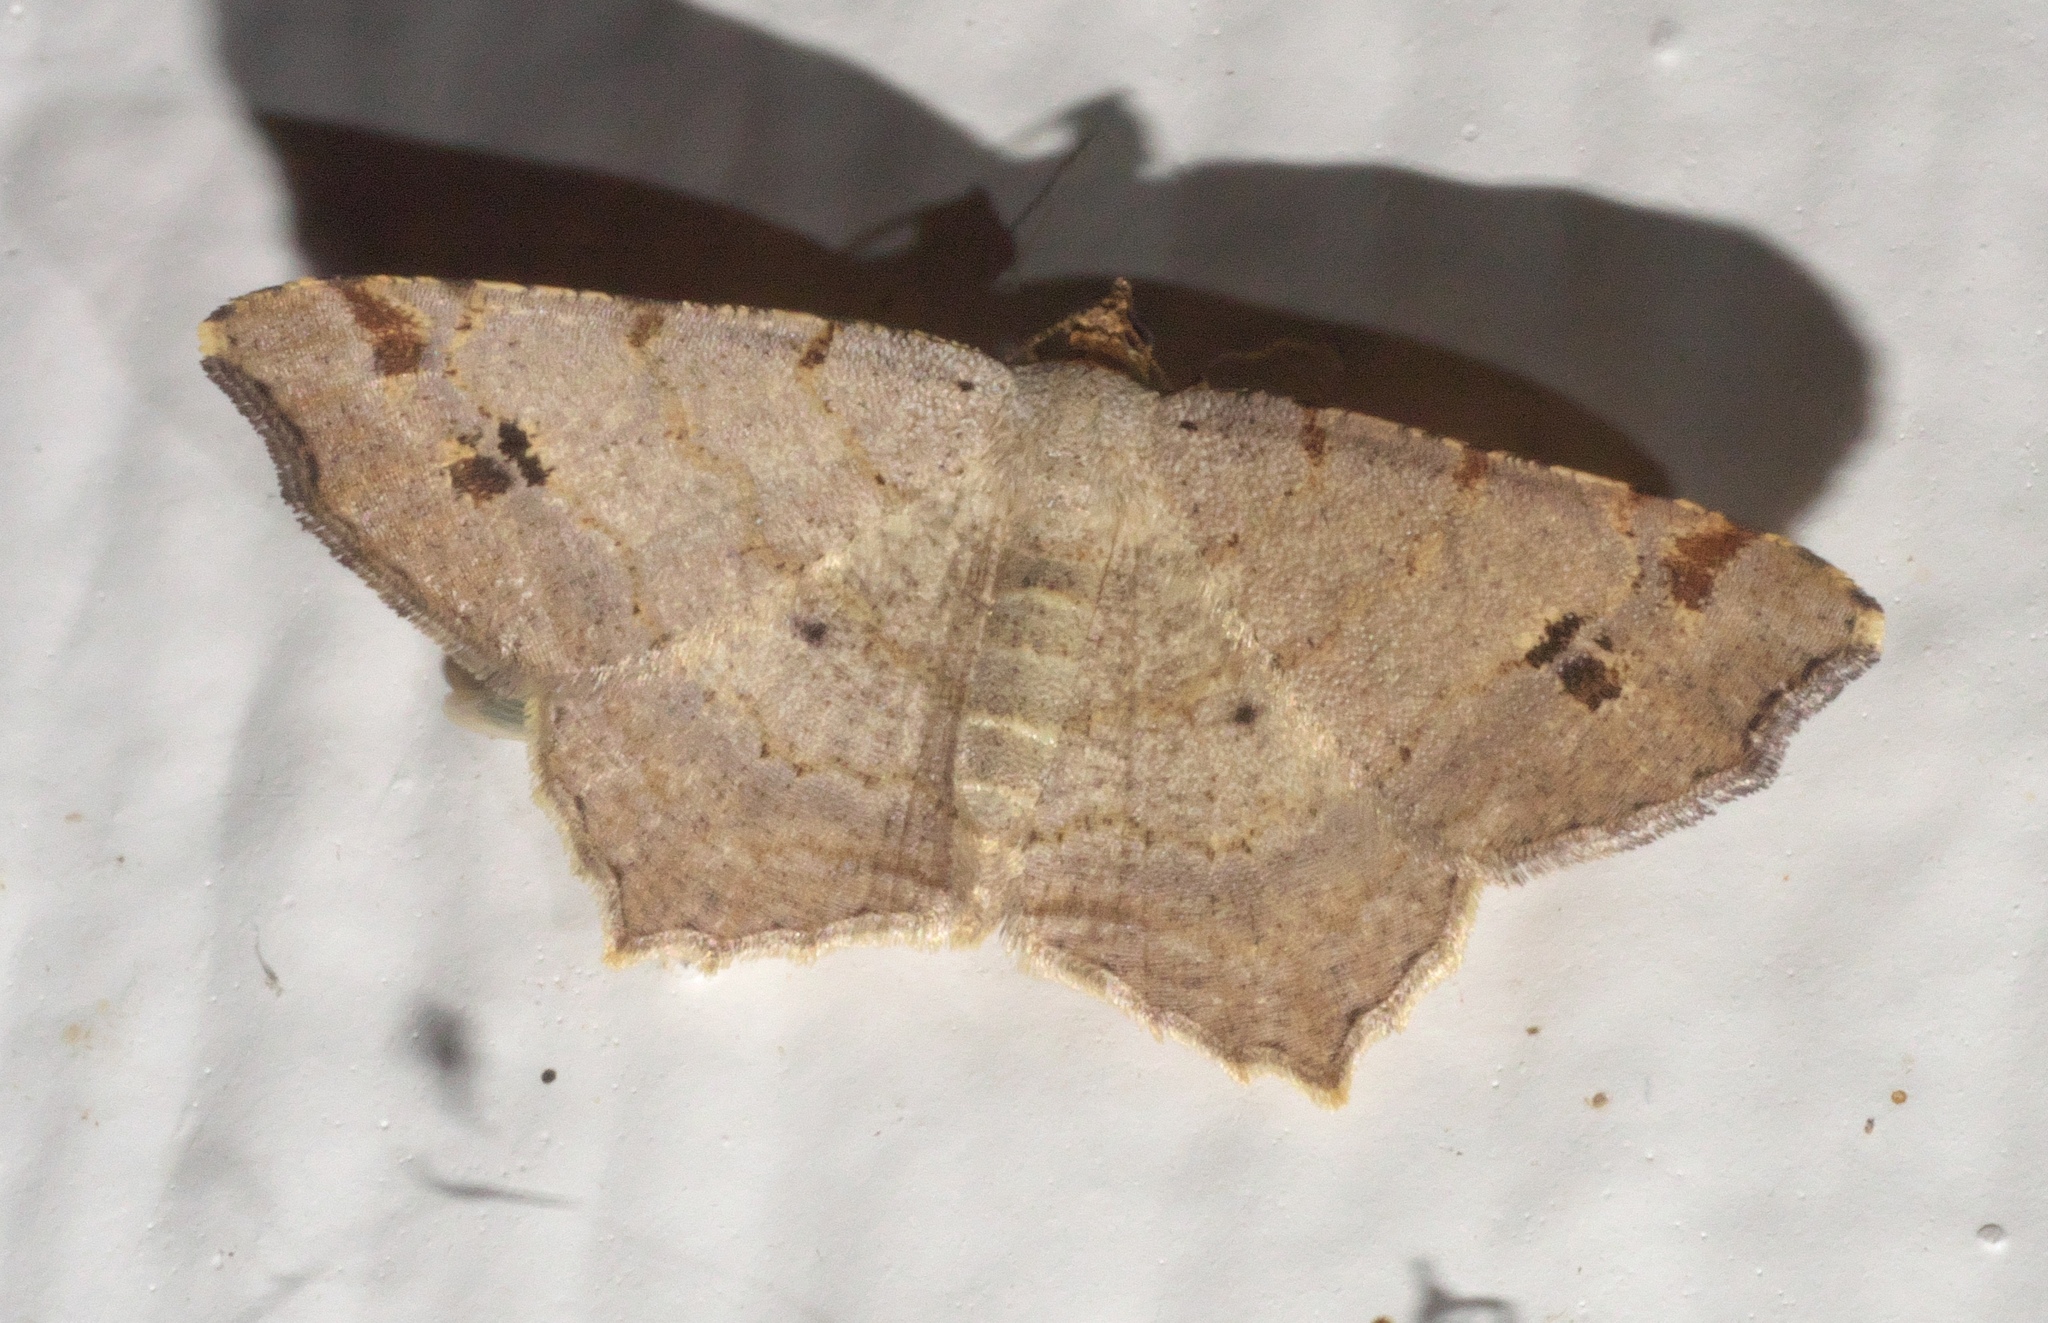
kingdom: Animalia
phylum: Arthropoda
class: Insecta
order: Lepidoptera
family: Geometridae
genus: Macaria
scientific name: Macaria aemulataria
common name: Common angle
